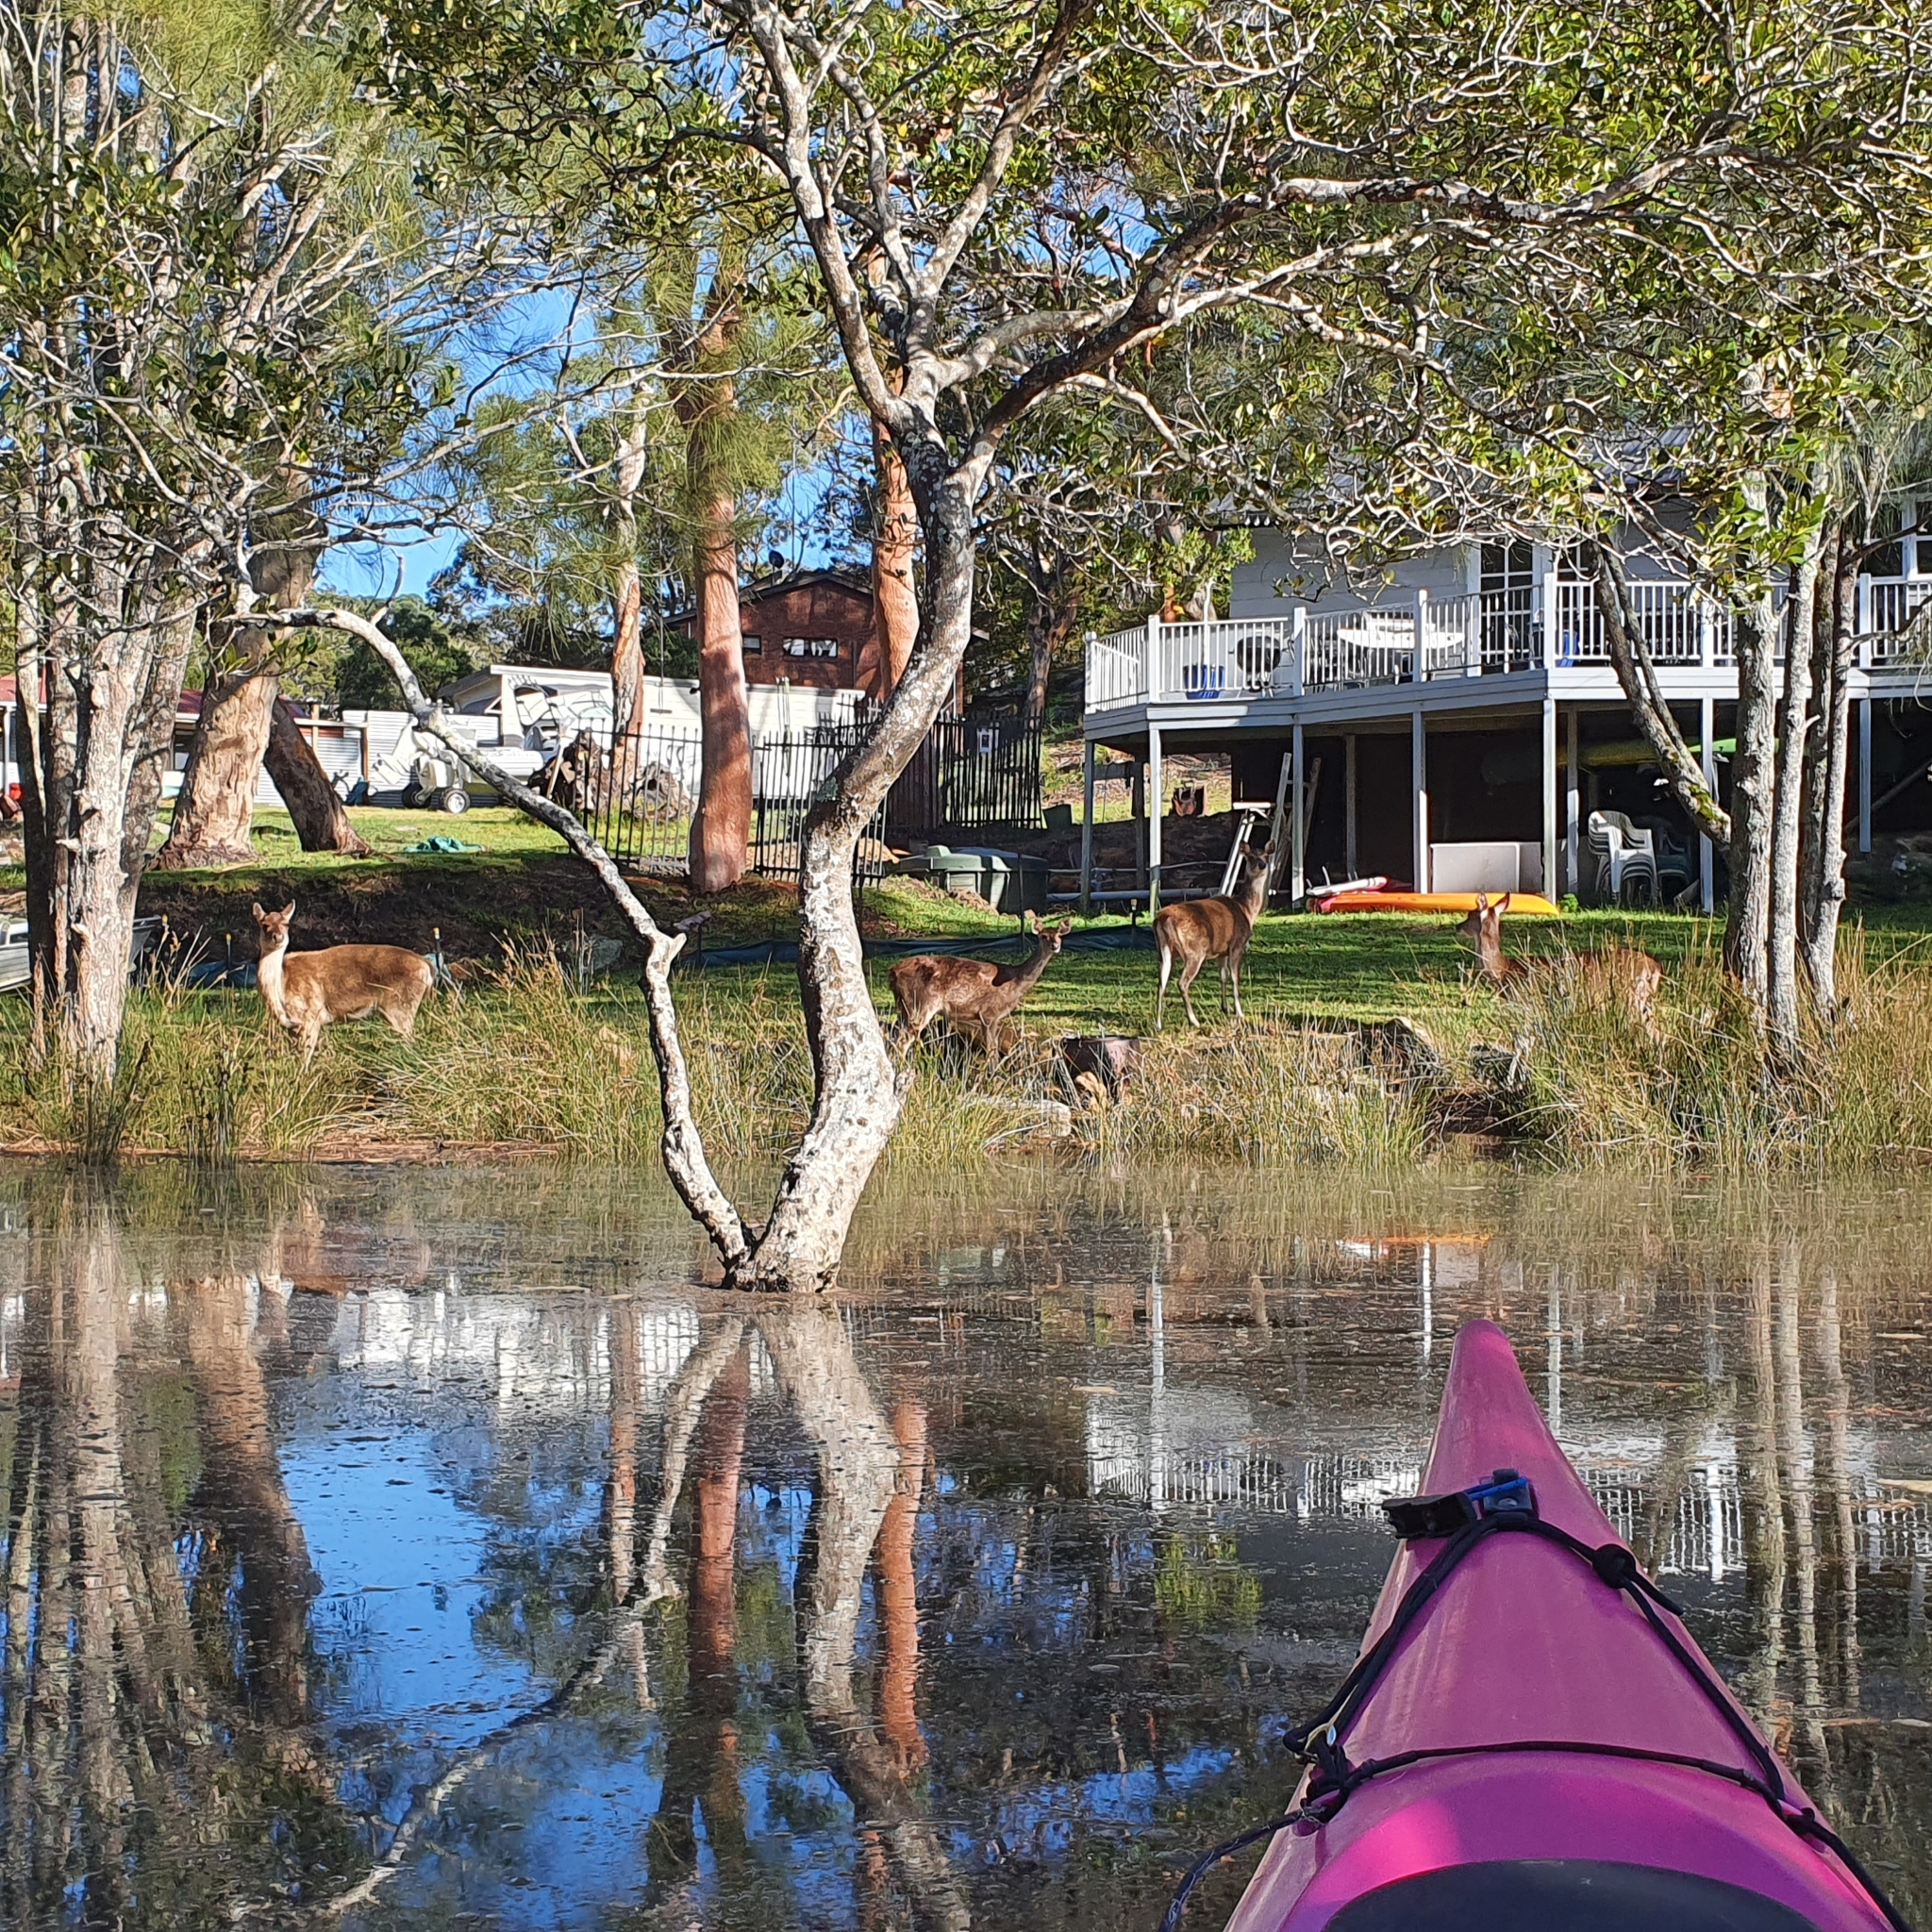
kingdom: Animalia
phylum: Chordata
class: Mammalia
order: Artiodactyla
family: Cervidae
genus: Rusa
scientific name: Rusa timorensis
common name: Javan rusa
